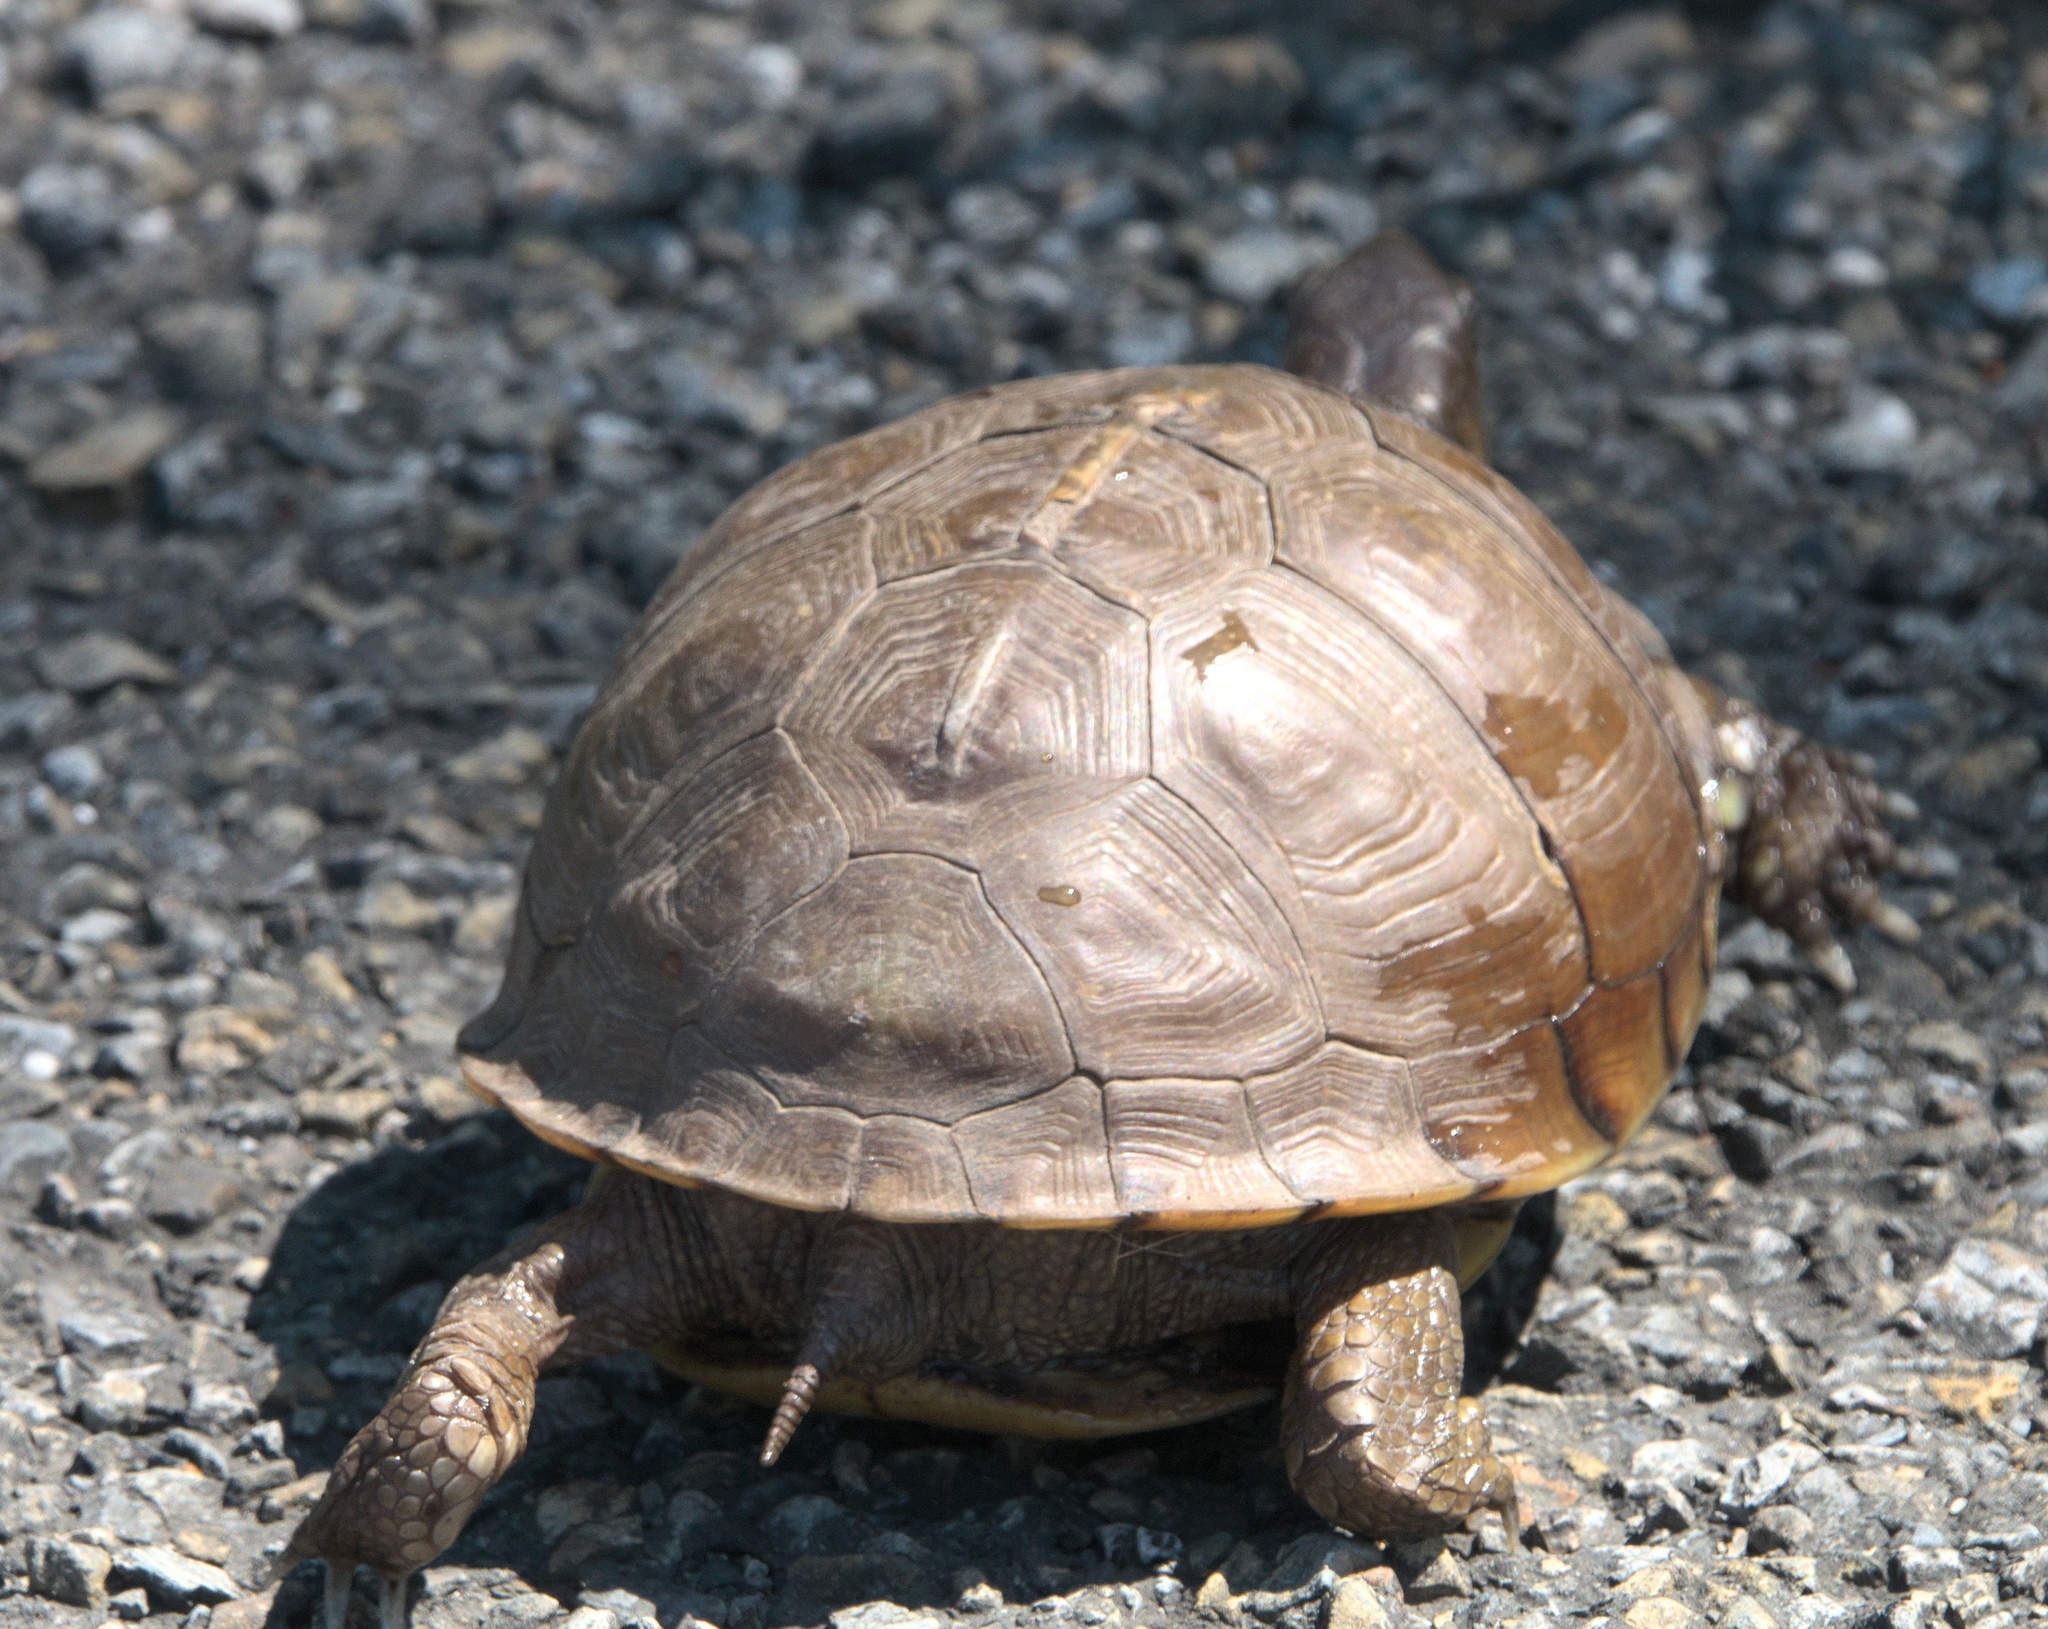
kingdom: Animalia
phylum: Chordata
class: Testudines
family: Emydidae
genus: Terrapene
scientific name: Terrapene carolina
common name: Common box turtle
